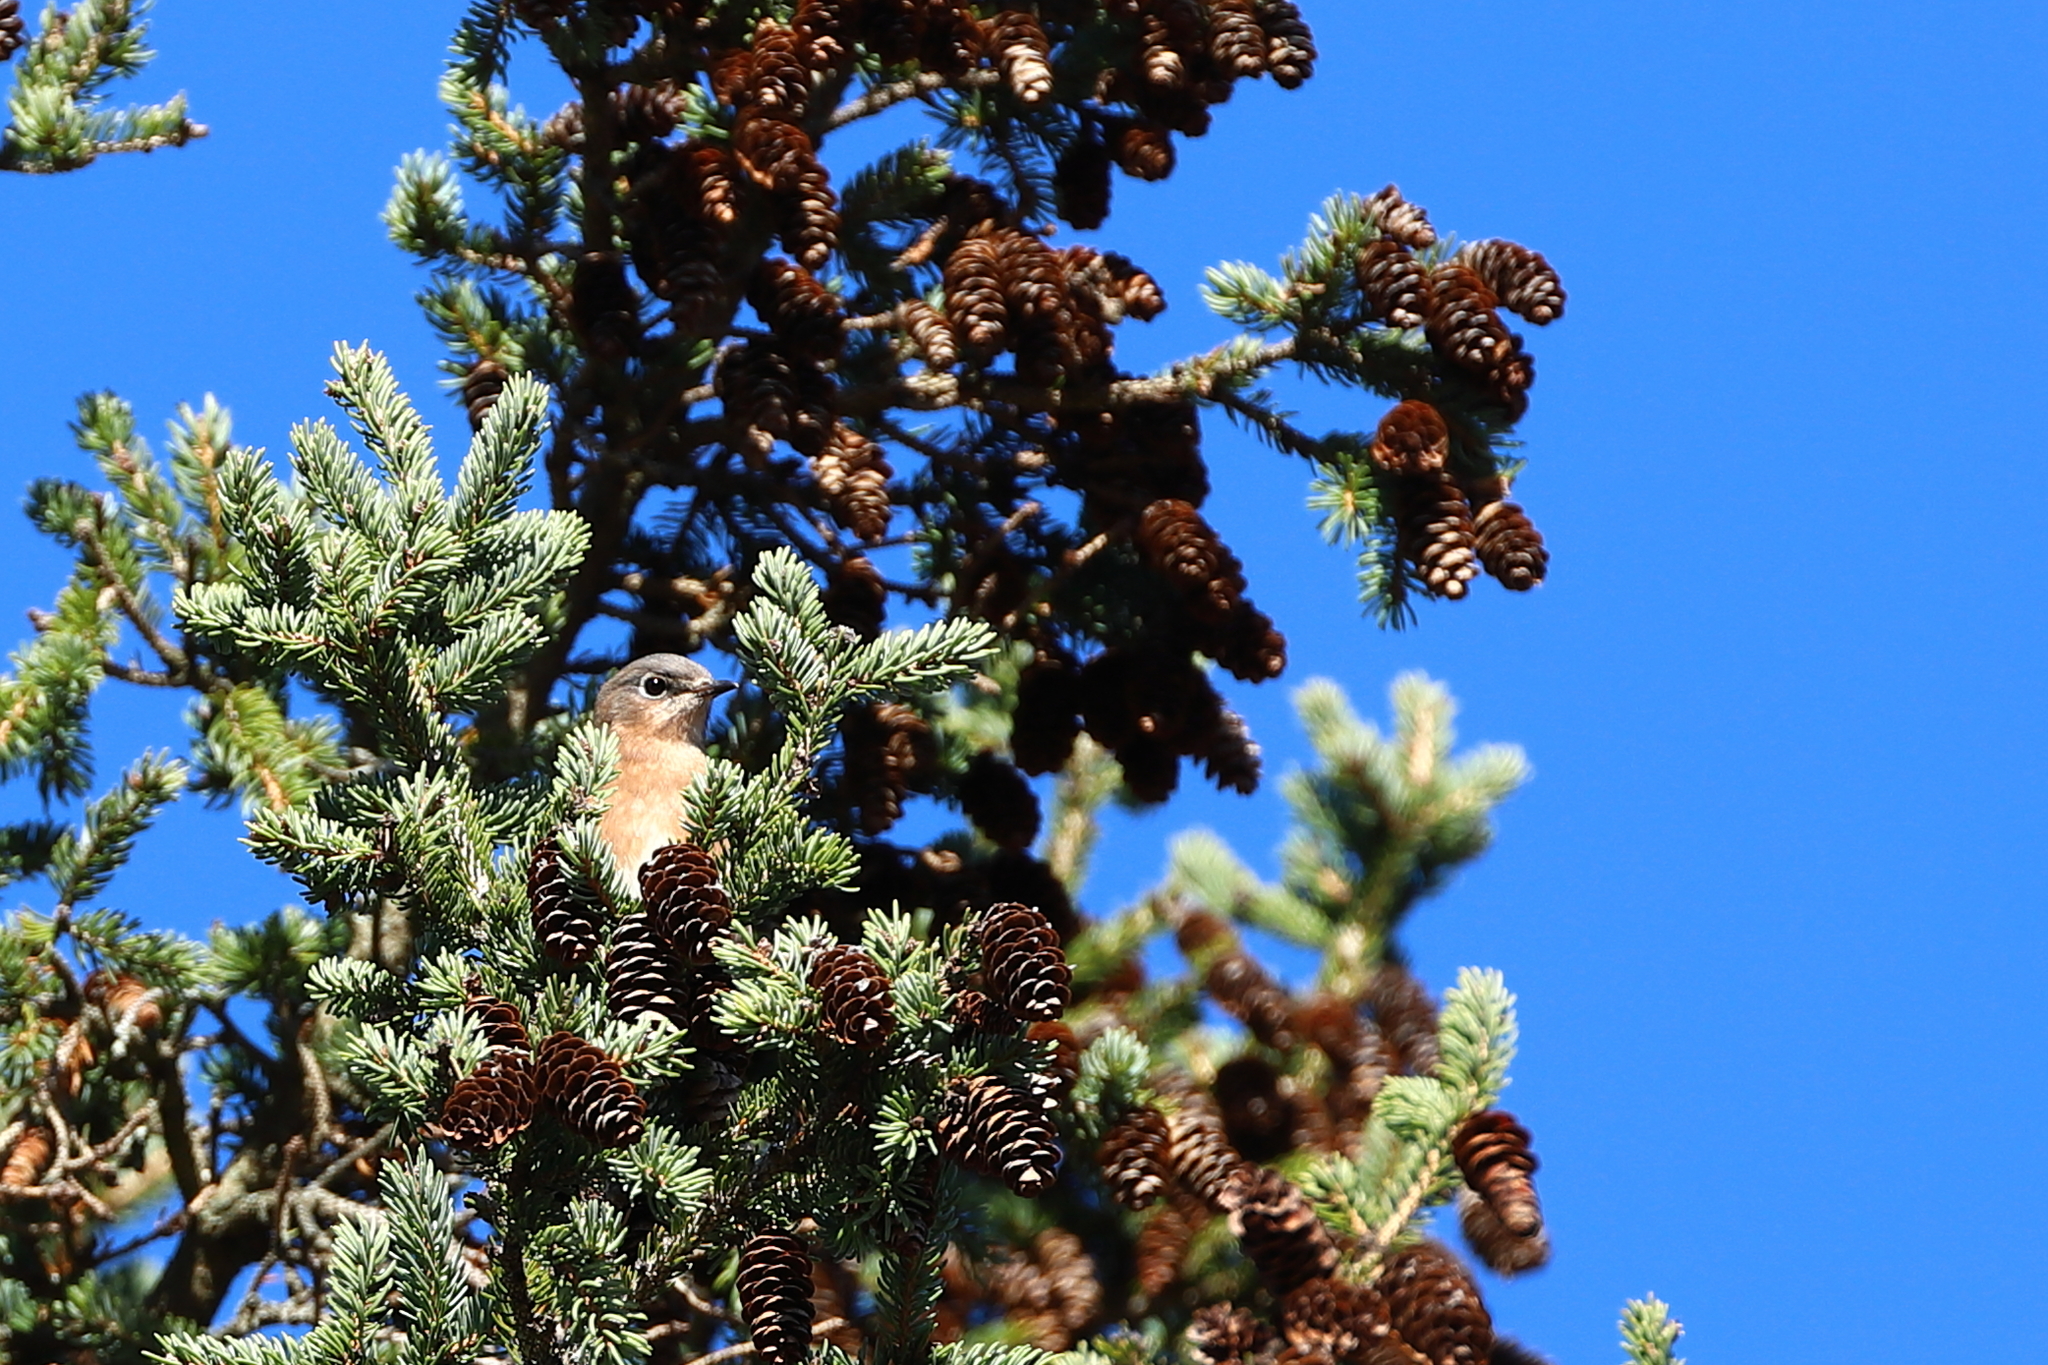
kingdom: Animalia
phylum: Chordata
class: Aves
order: Passeriformes
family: Turdidae
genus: Sialia
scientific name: Sialia sialis
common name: Eastern bluebird
